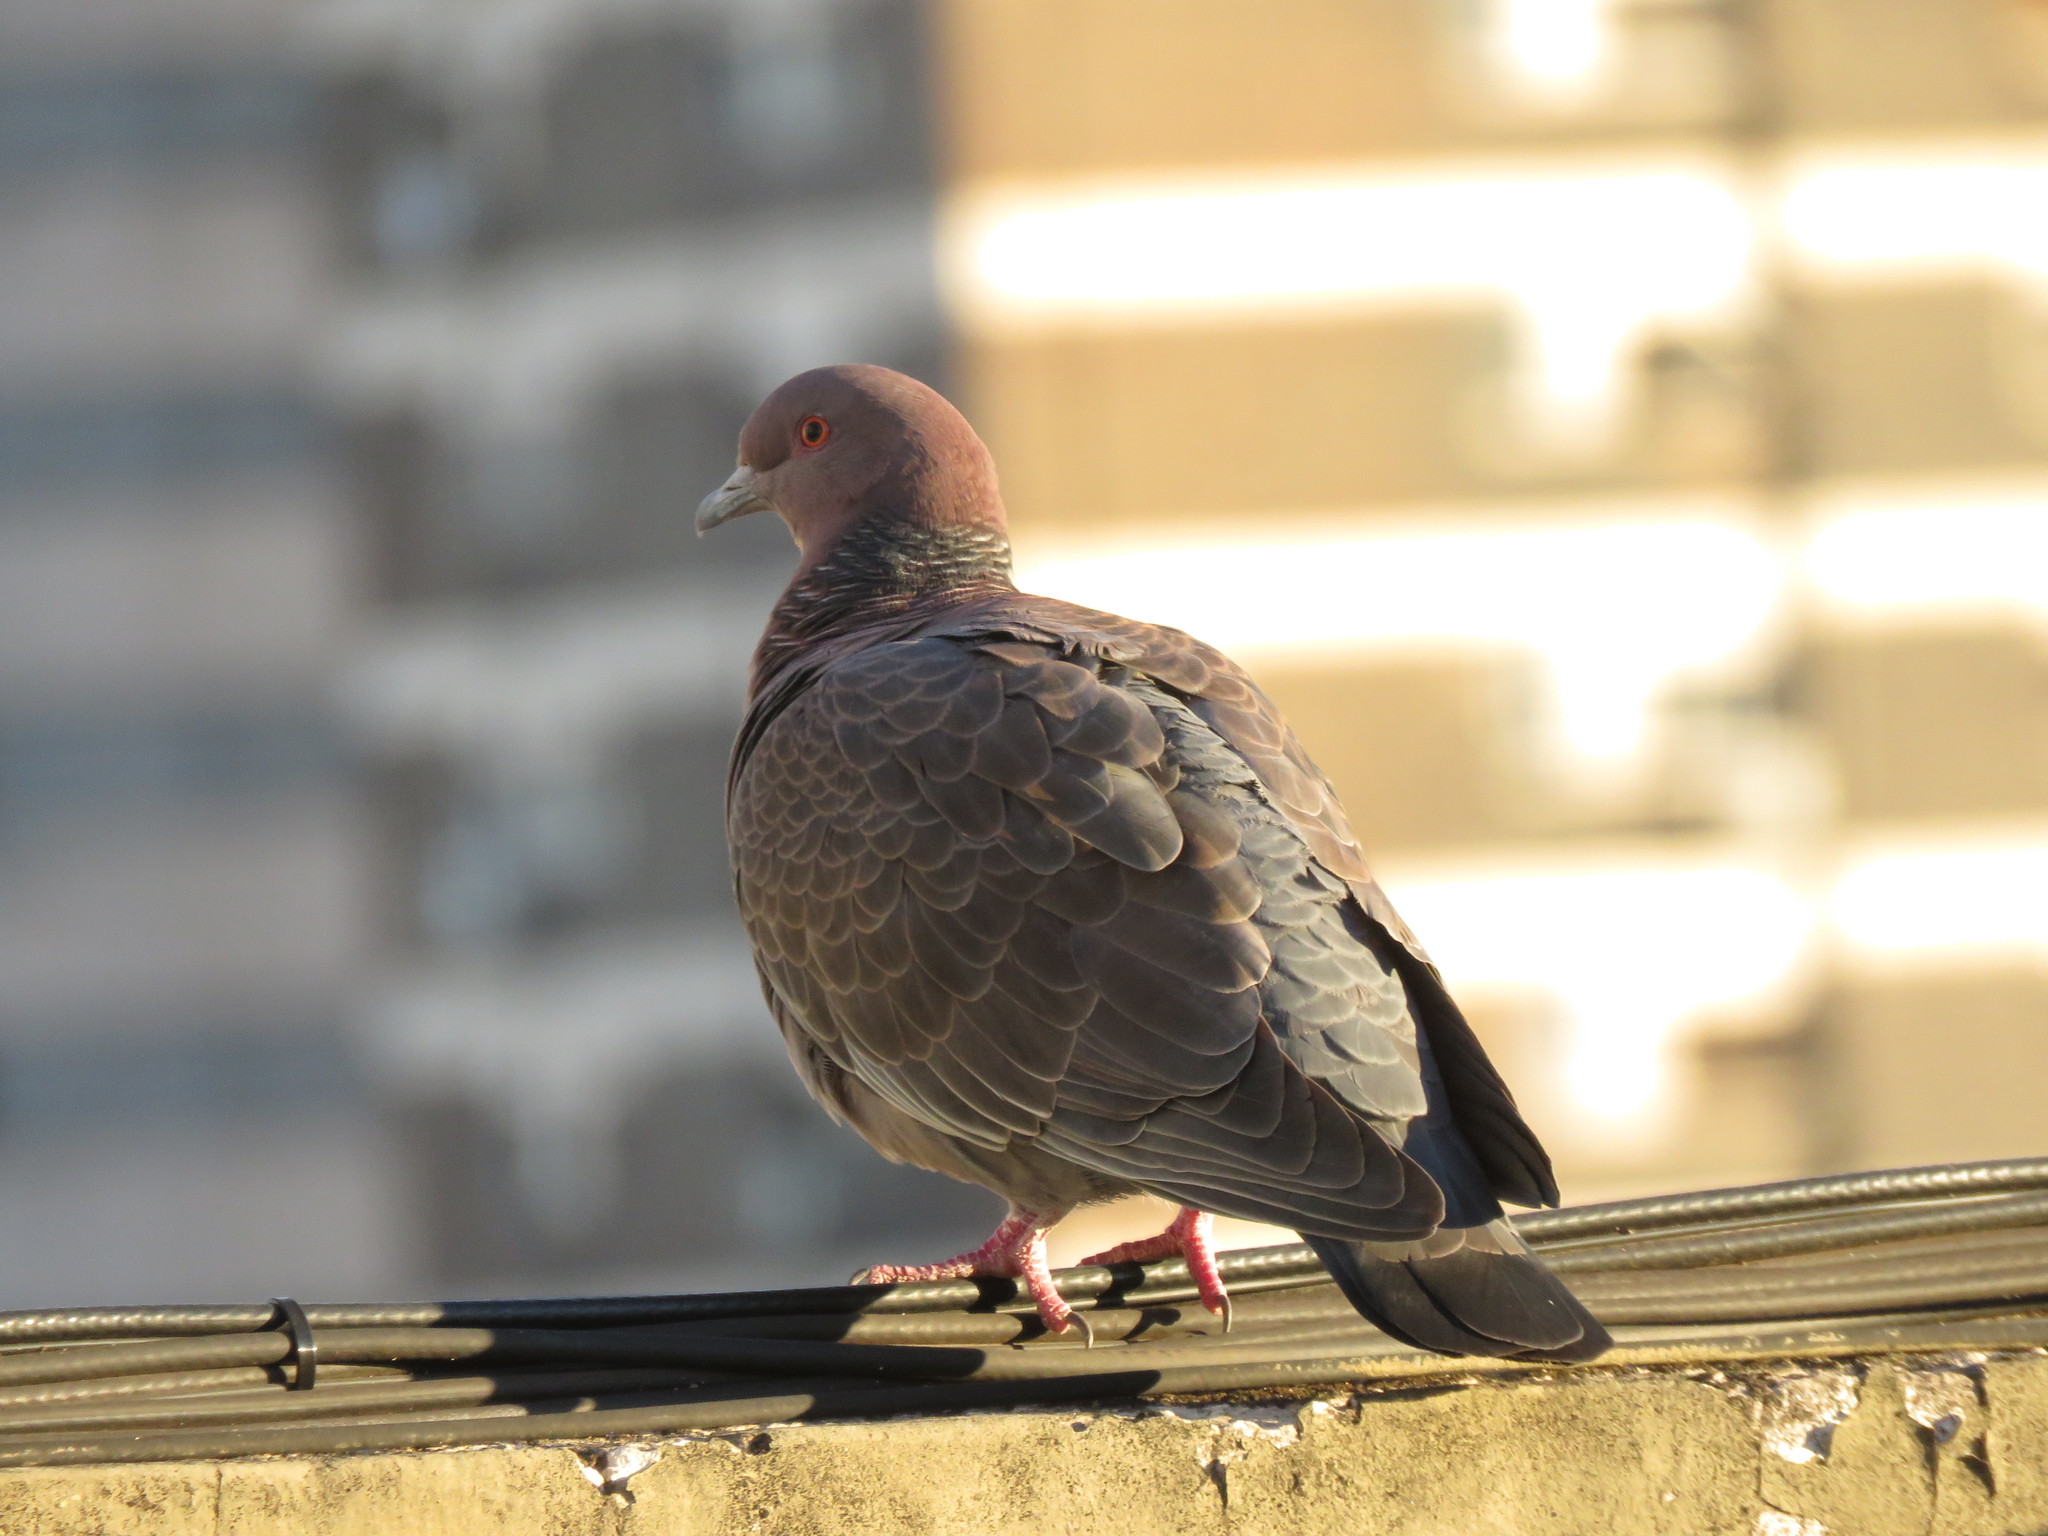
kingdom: Animalia
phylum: Chordata
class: Aves
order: Columbiformes
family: Columbidae
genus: Patagioenas
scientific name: Patagioenas picazuro
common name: Picazuro pigeon
